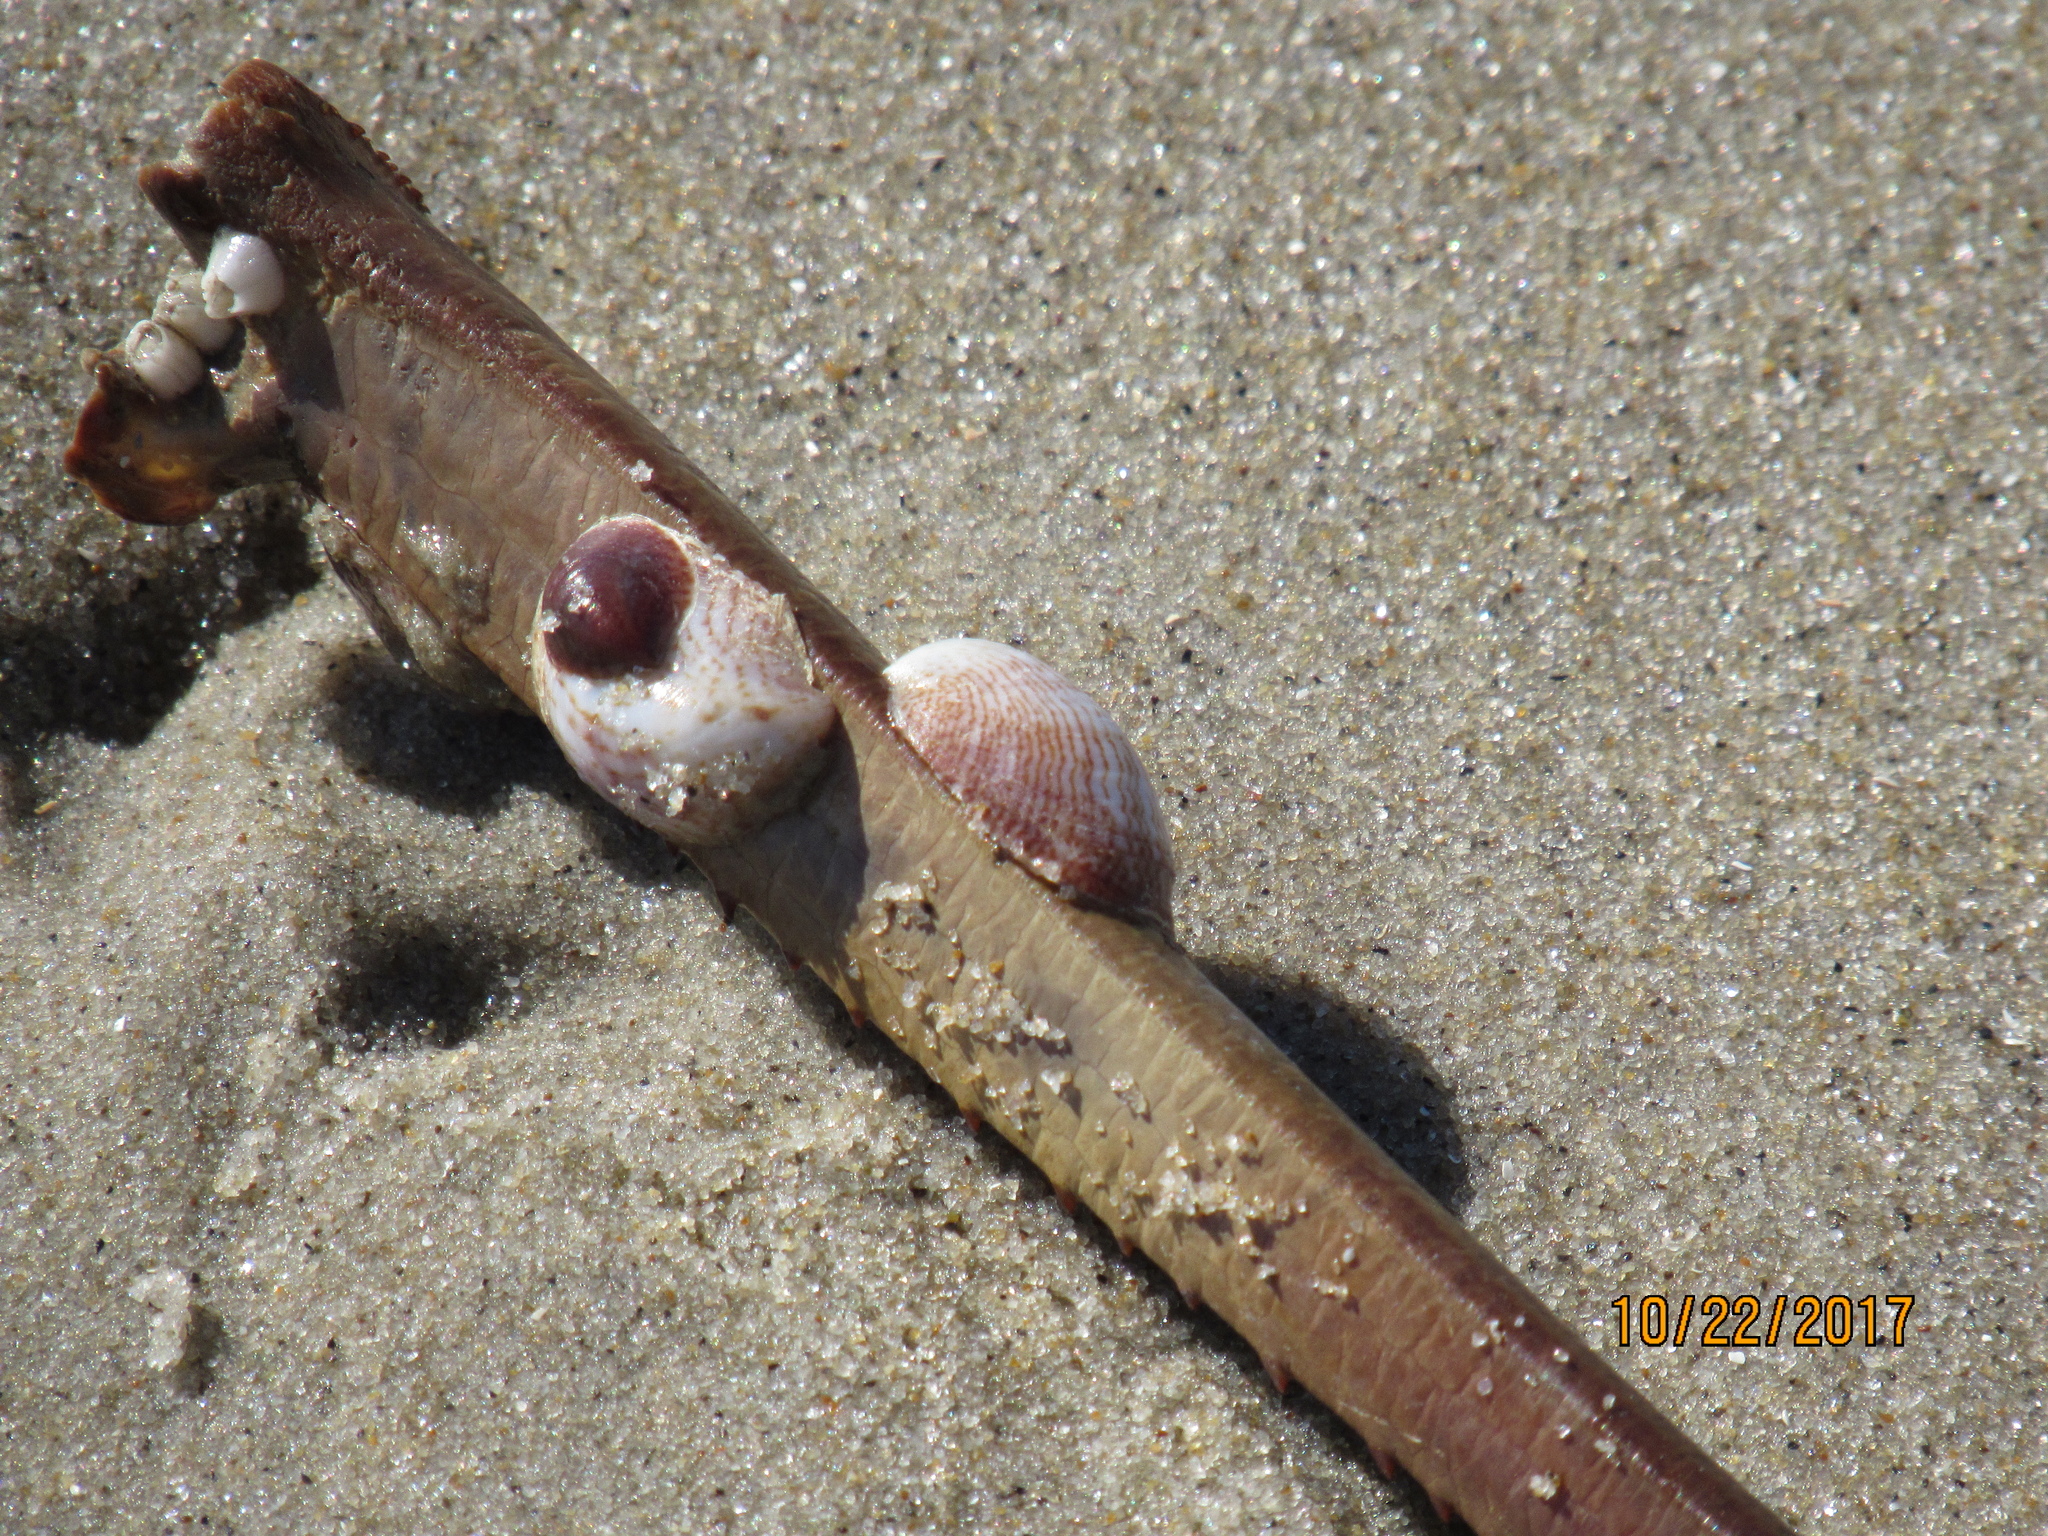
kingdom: Animalia
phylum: Mollusca
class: Gastropoda
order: Littorinimorpha
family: Calyptraeidae
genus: Crepidula
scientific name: Crepidula fornicata
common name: Slipper limpet
